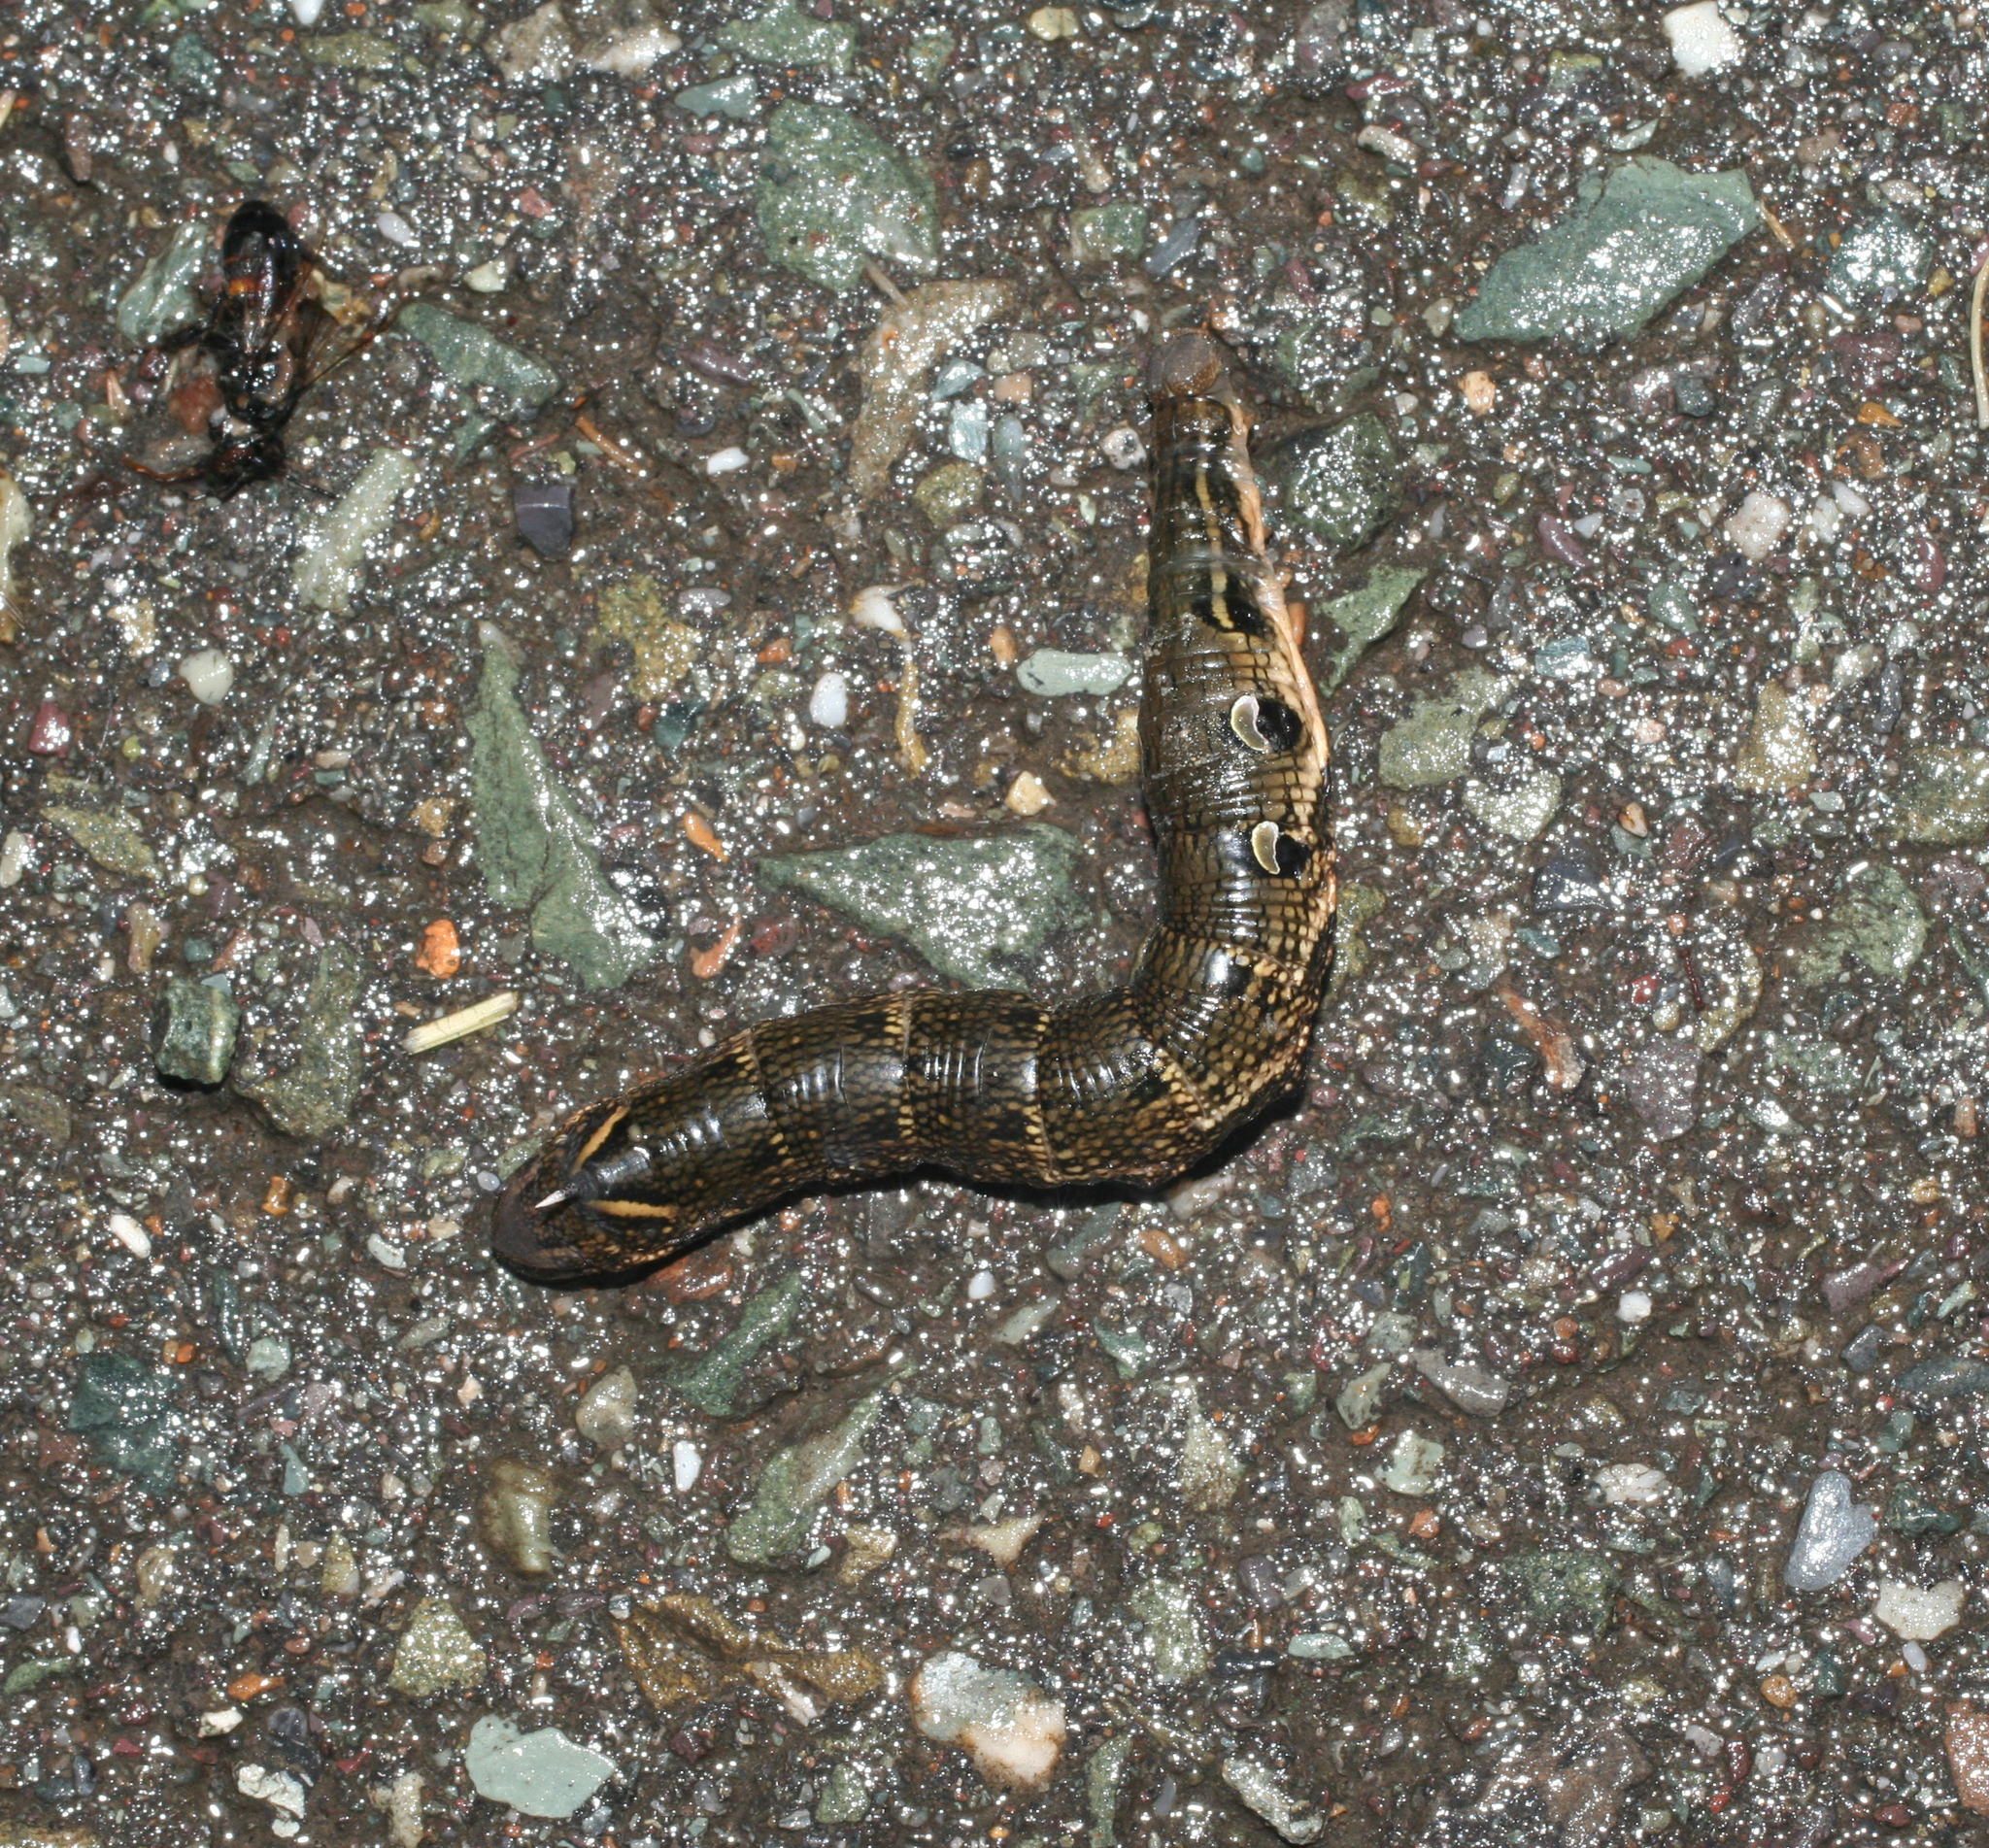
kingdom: Animalia
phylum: Arthropoda
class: Insecta
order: Lepidoptera
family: Sphingidae
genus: Deilephila
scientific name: Deilephila elpenor
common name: Elephant hawk-moth
